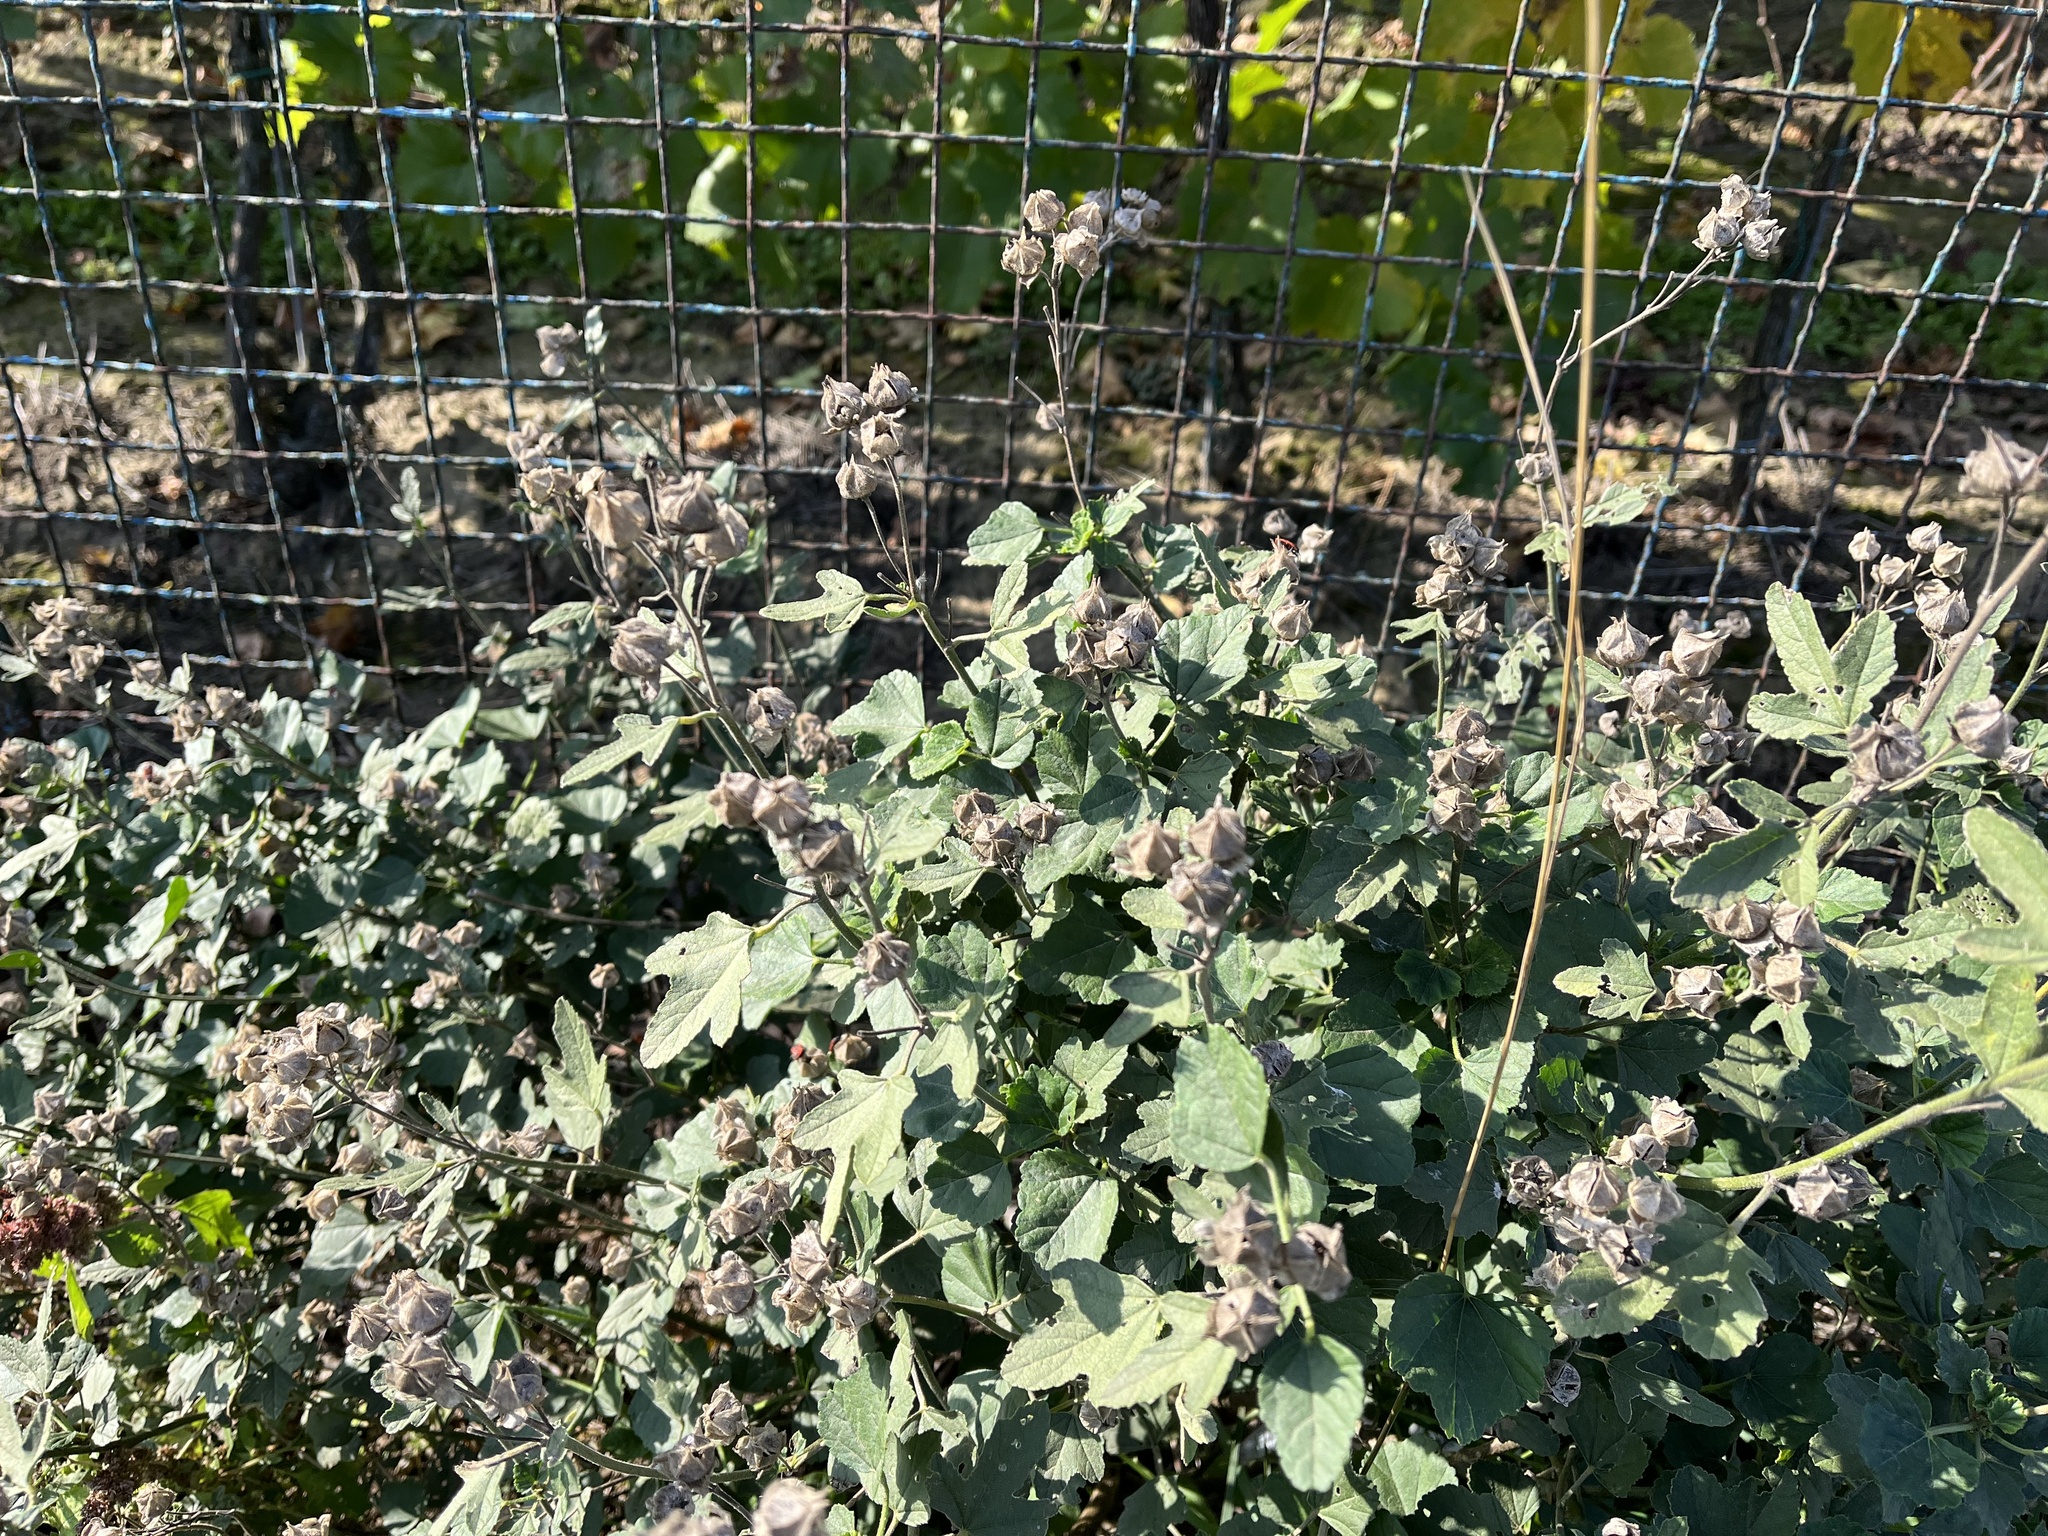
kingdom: Plantae
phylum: Tracheophyta
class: Magnoliopsida
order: Malvales
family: Malvaceae
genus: Malva
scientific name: Malva thuringiaca
